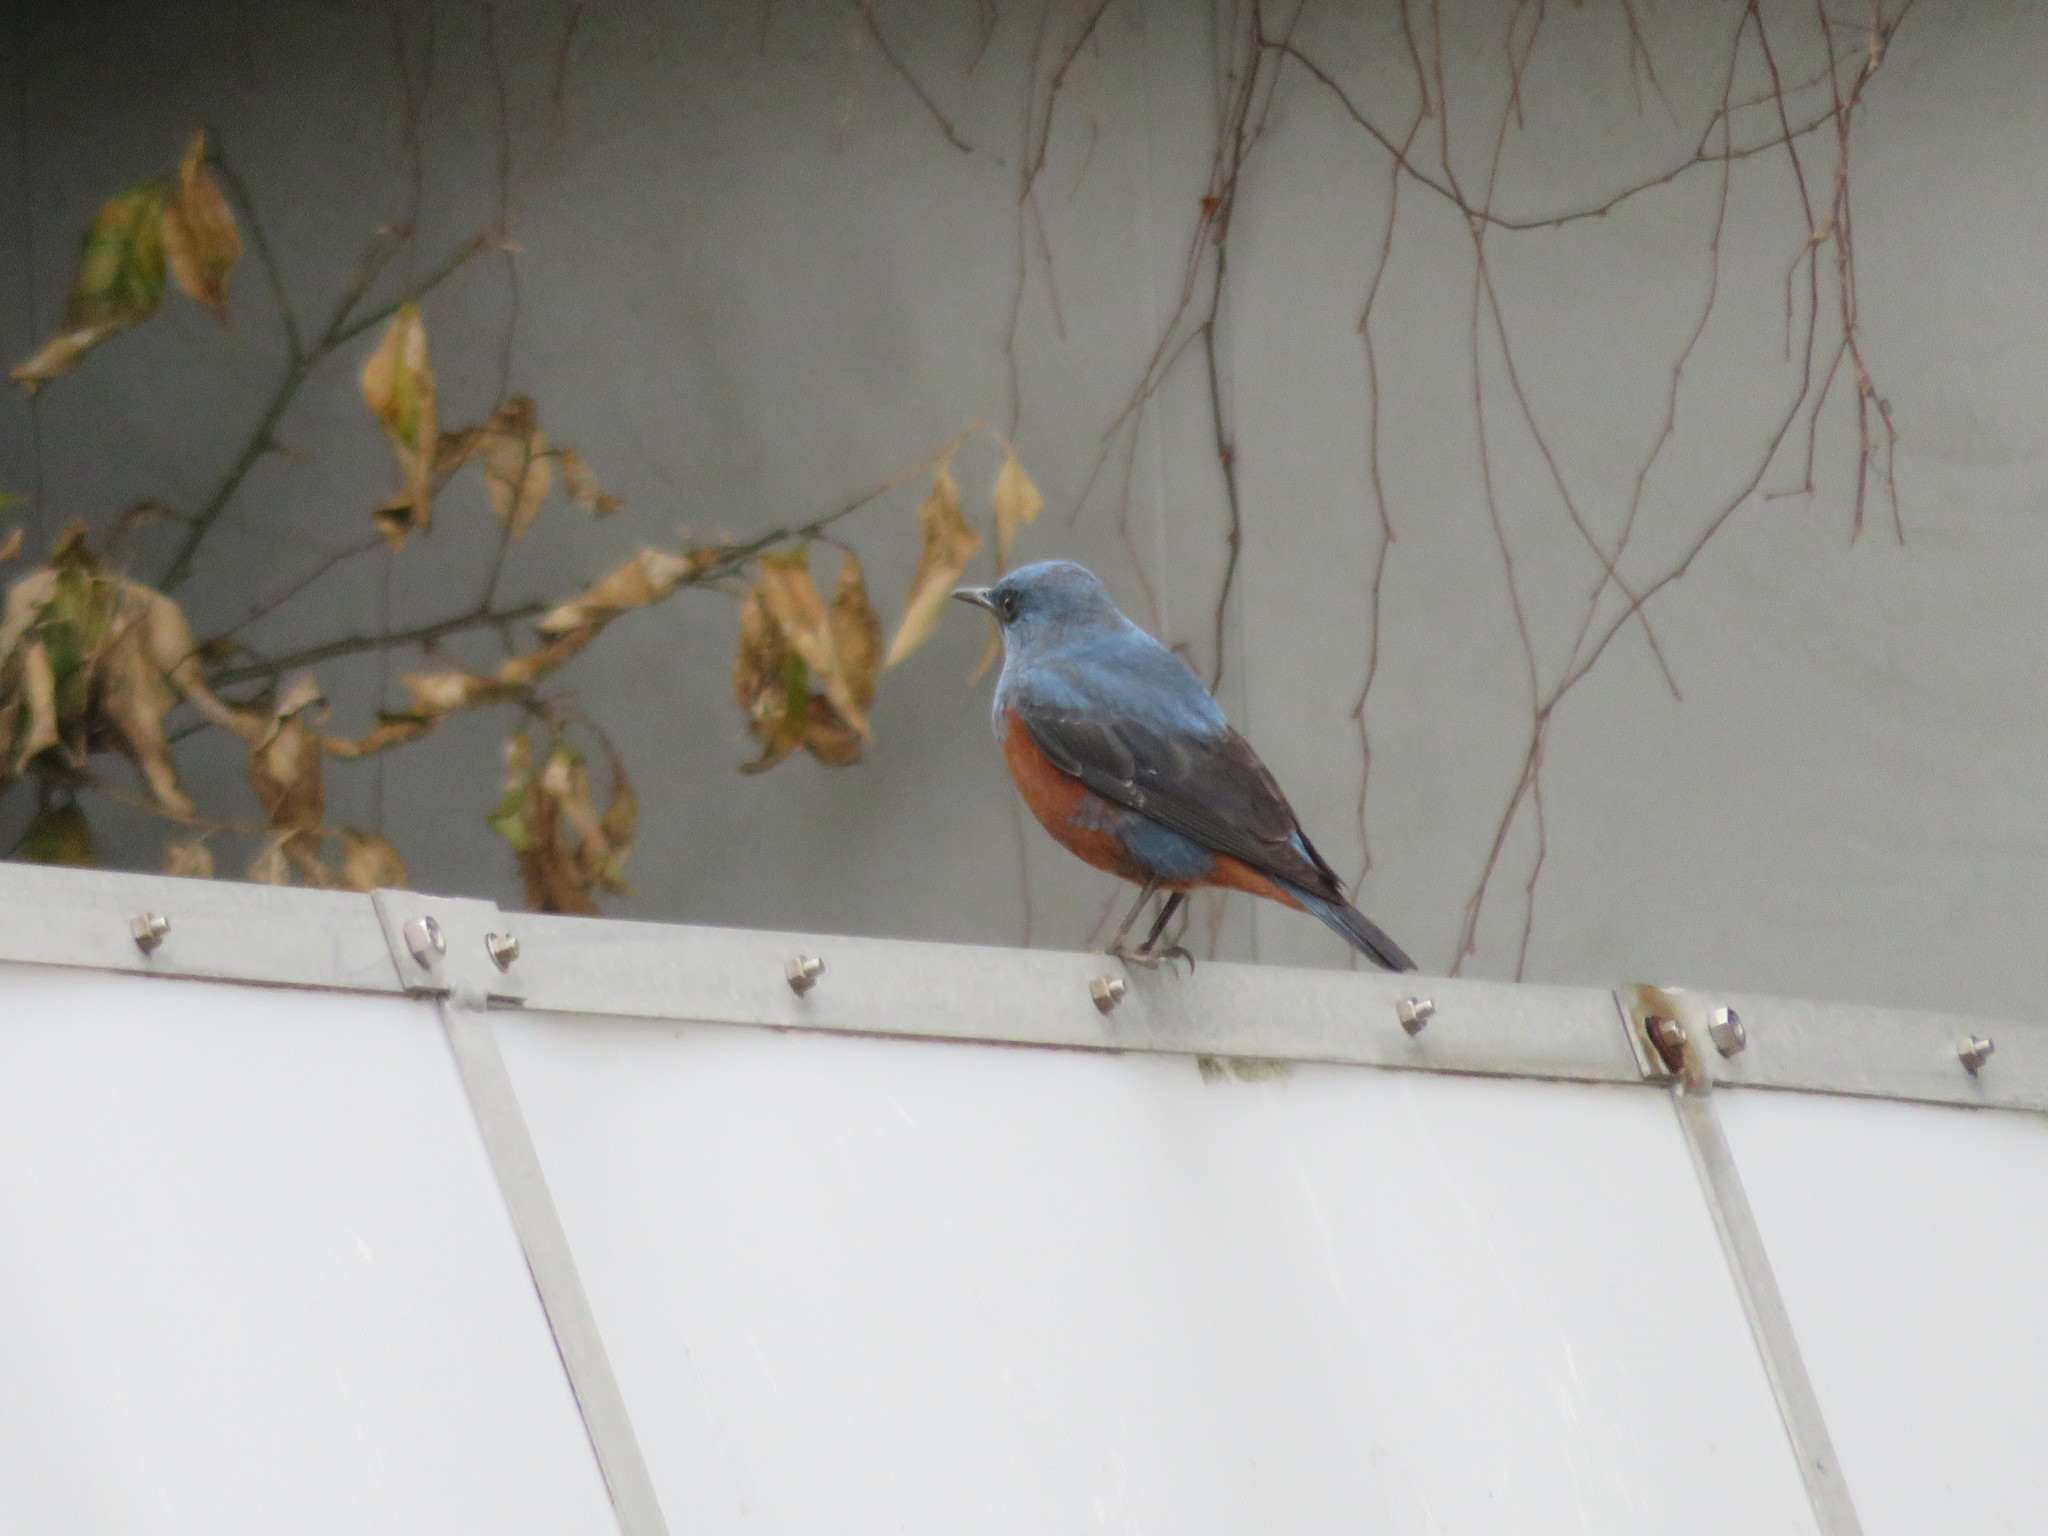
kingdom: Animalia
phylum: Chordata
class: Aves
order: Passeriformes
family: Muscicapidae
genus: Monticola
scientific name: Monticola solitarius
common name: Blue rock thrush
